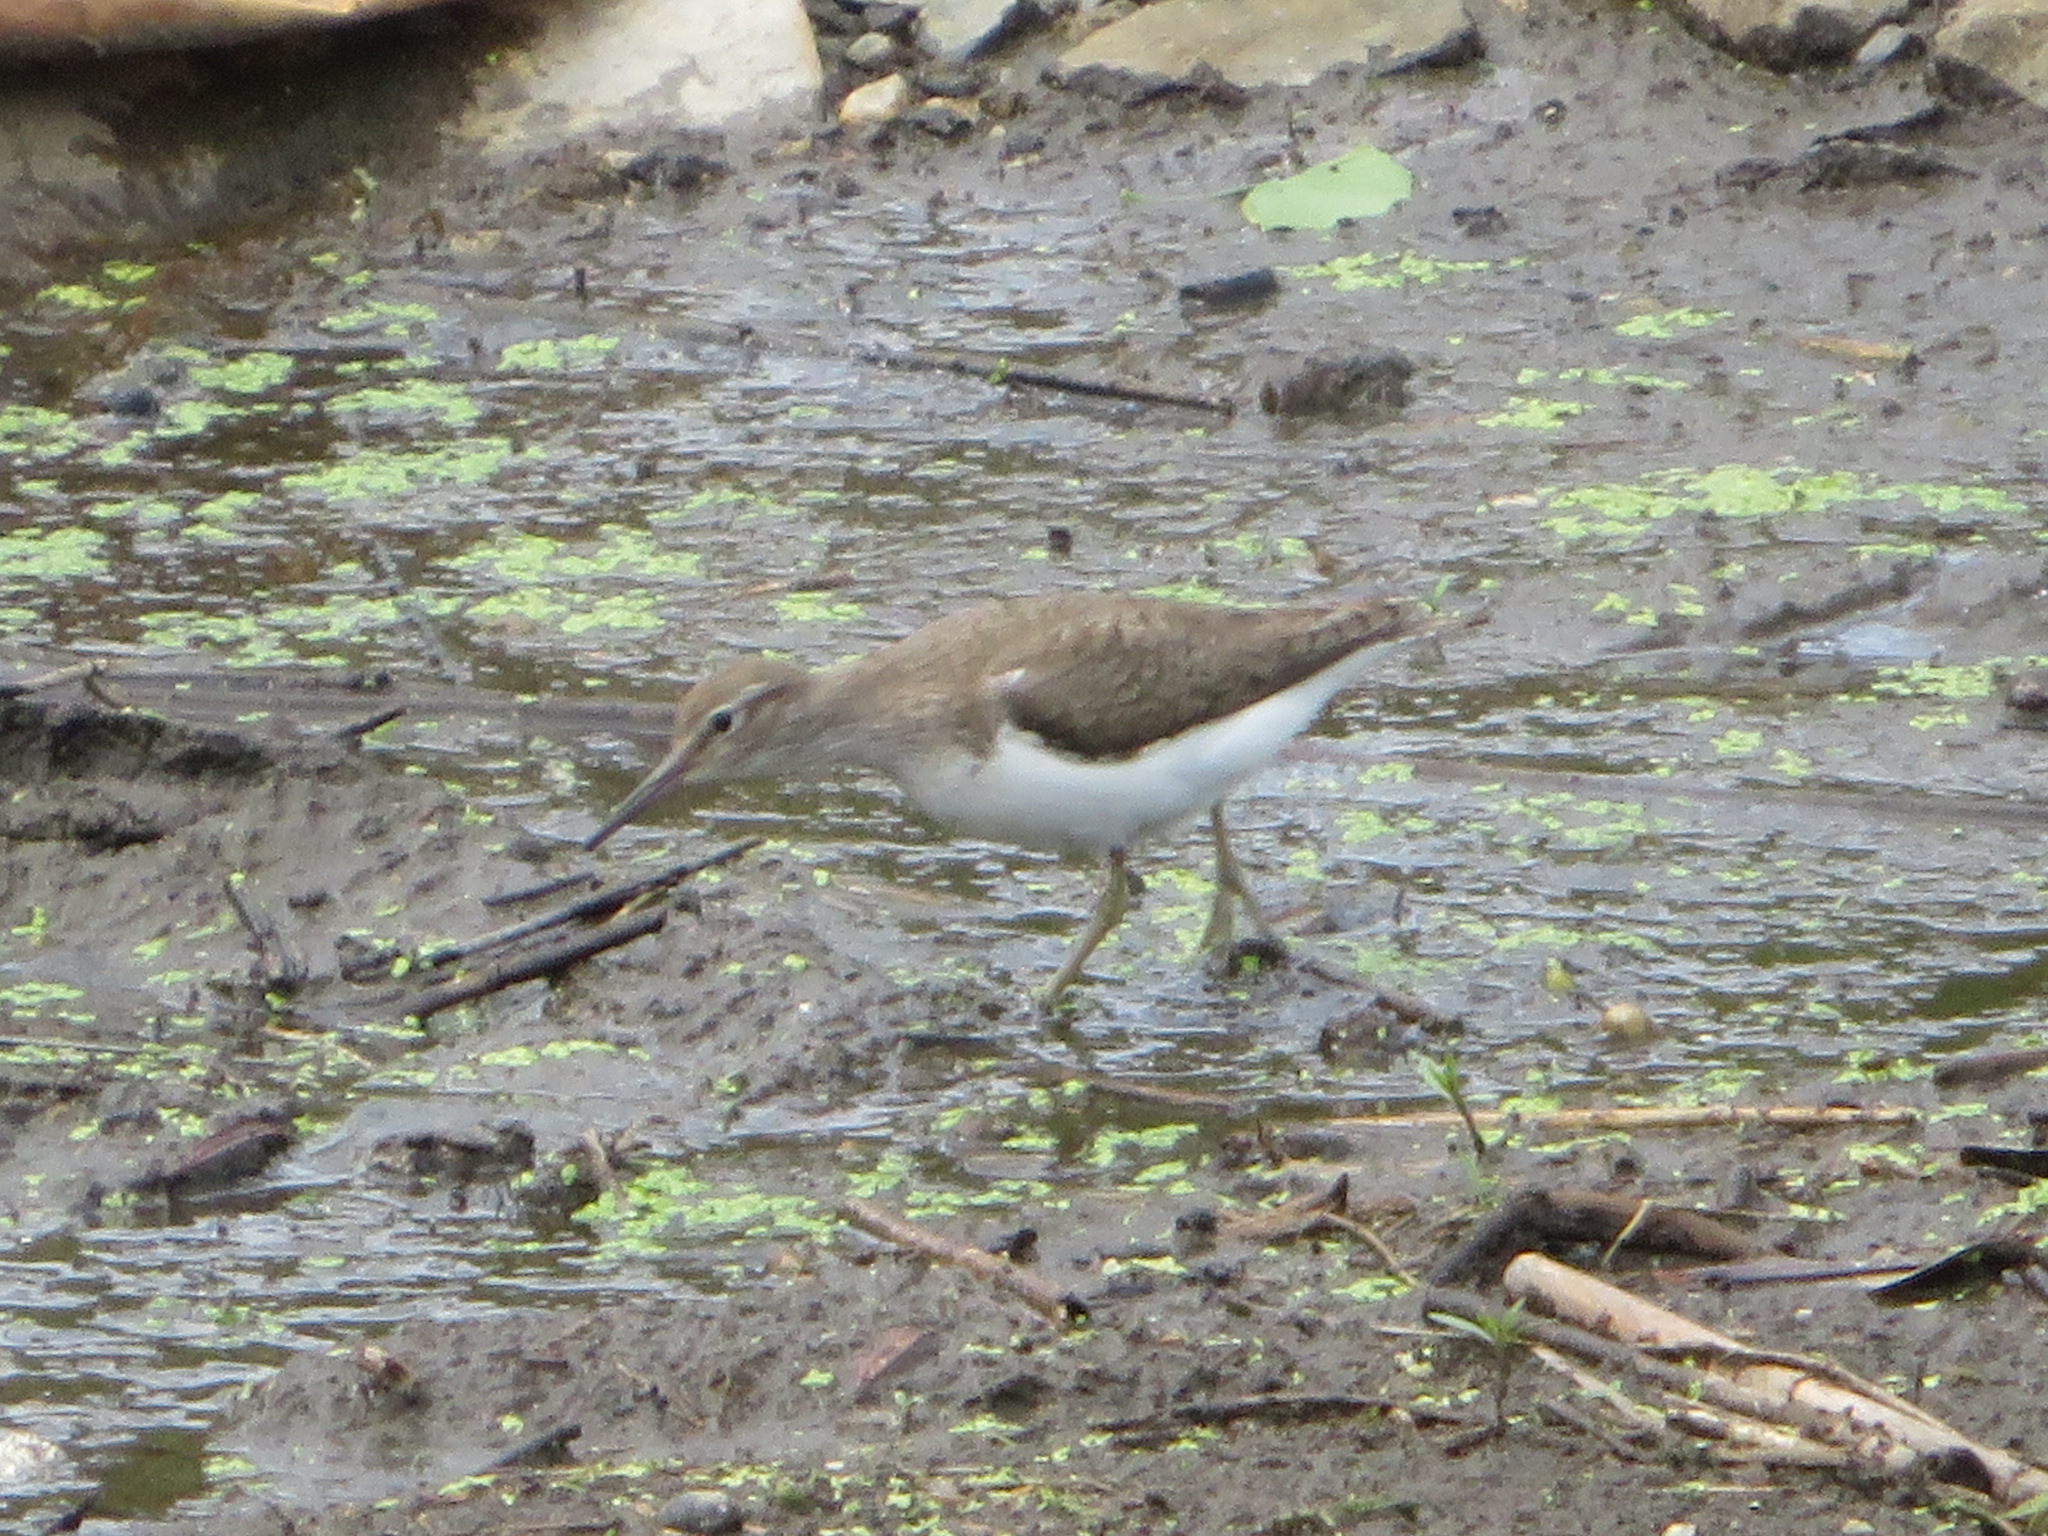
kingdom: Animalia
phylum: Chordata
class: Aves
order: Charadriiformes
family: Scolopacidae
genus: Actitis
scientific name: Actitis hypoleucos
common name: Common sandpiper
